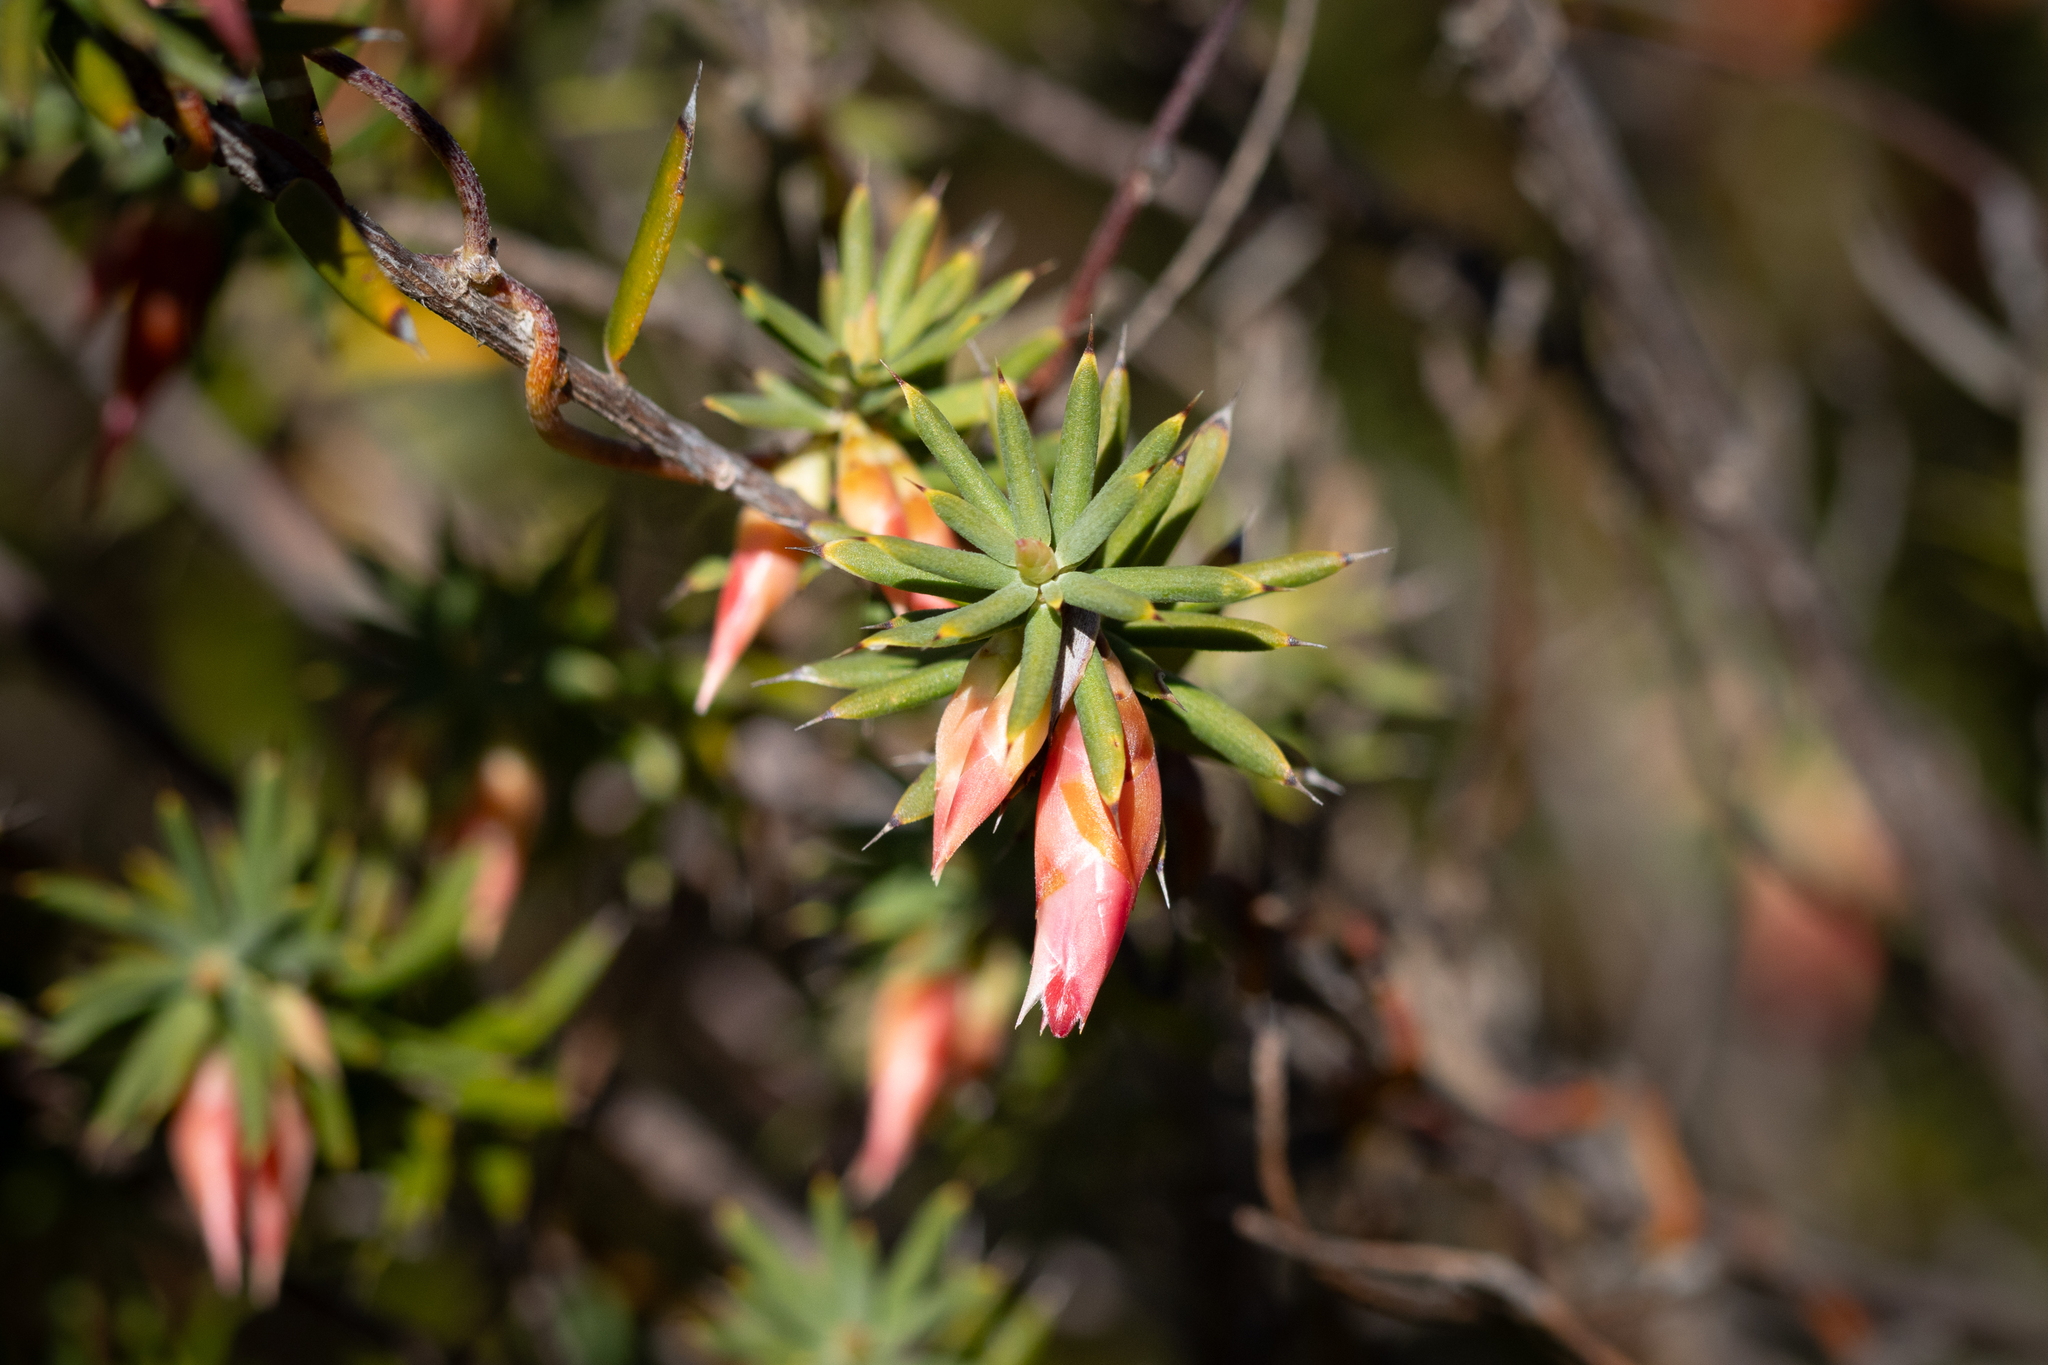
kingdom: Plantae
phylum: Tracheophyta
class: Magnoliopsida
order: Ericales
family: Ericaceae
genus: Stenanthera
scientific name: Stenanthera conostephioides
